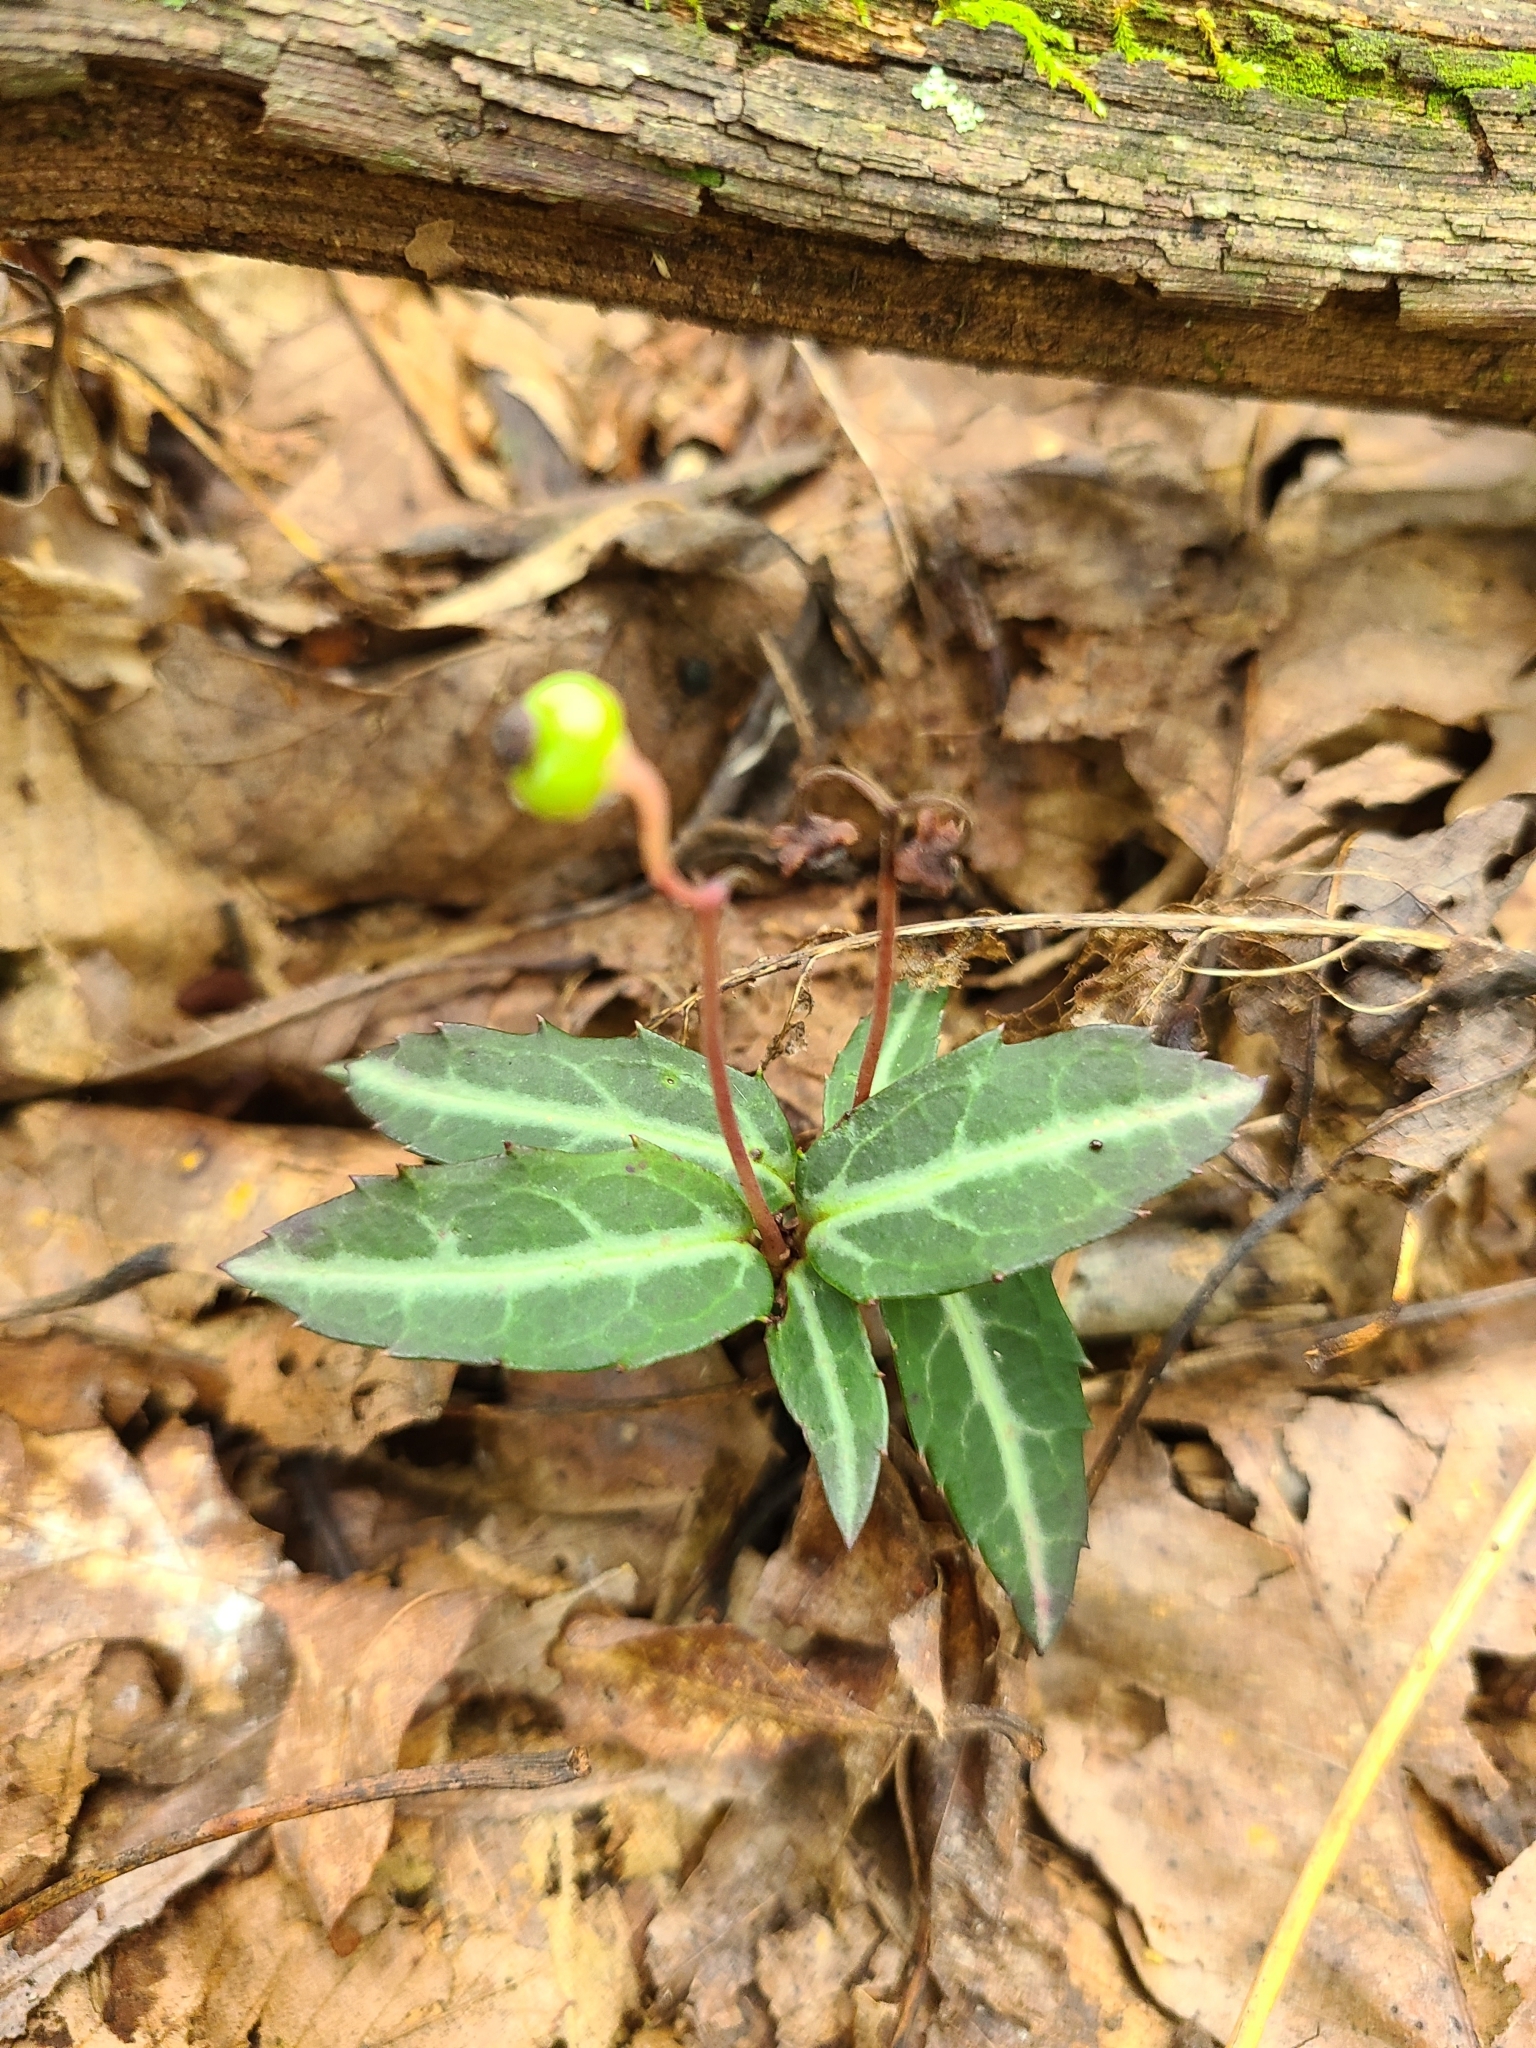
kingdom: Plantae
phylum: Tracheophyta
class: Magnoliopsida
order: Ericales
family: Ericaceae
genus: Chimaphila
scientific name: Chimaphila maculata
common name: Spotted pipsissewa
